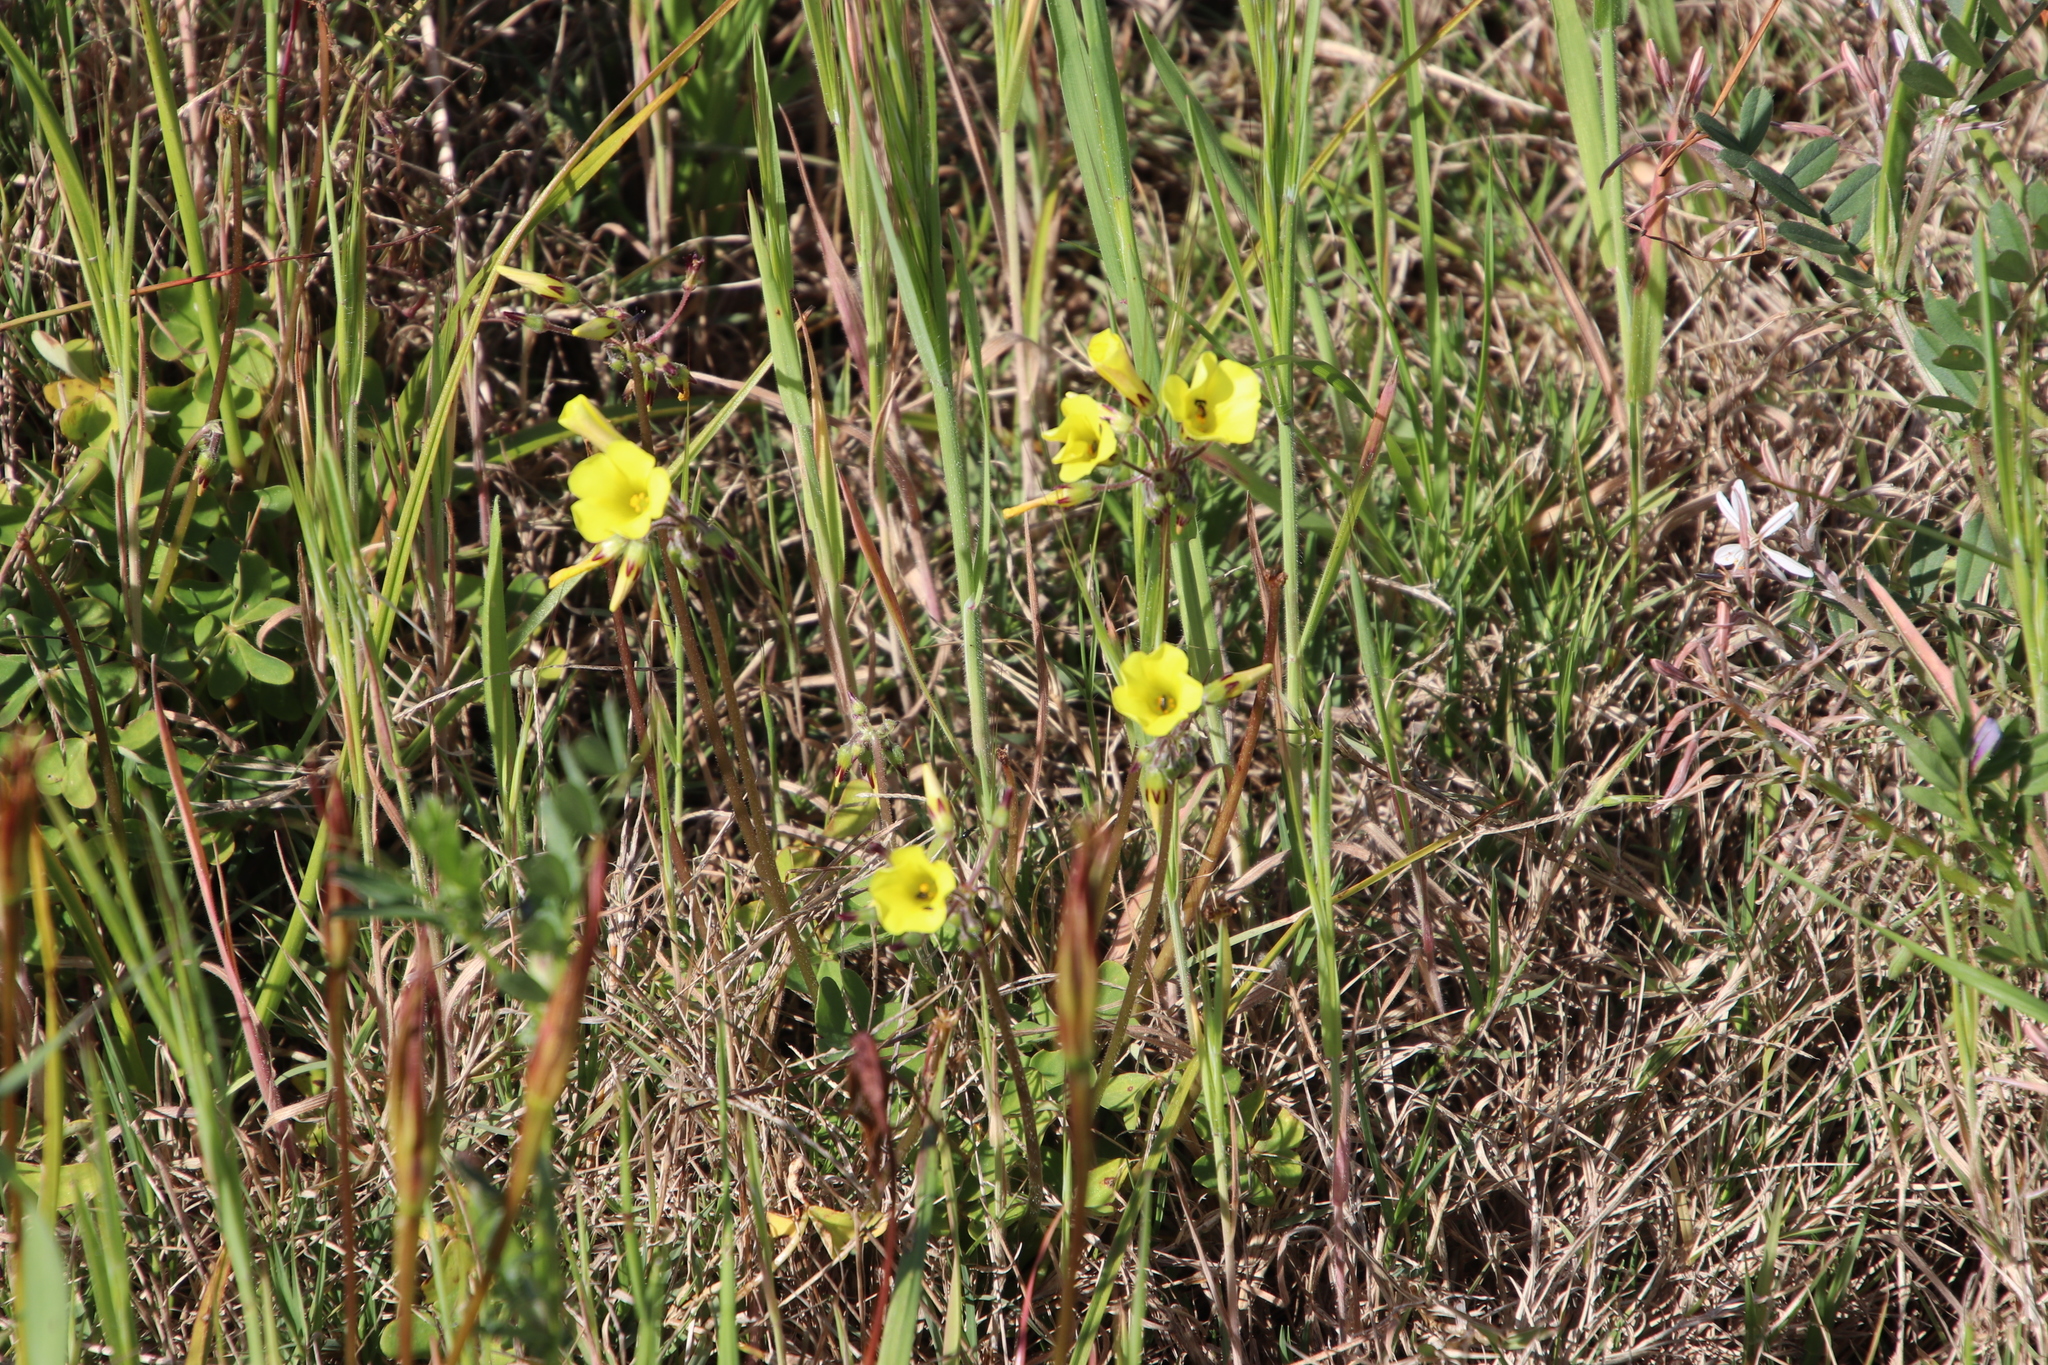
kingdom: Plantae
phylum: Tracheophyta
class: Magnoliopsida
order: Oxalidales
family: Oxalidaceae
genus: Oxalis
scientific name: Oxalis pes-caprae
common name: Bermuda-buttercup
